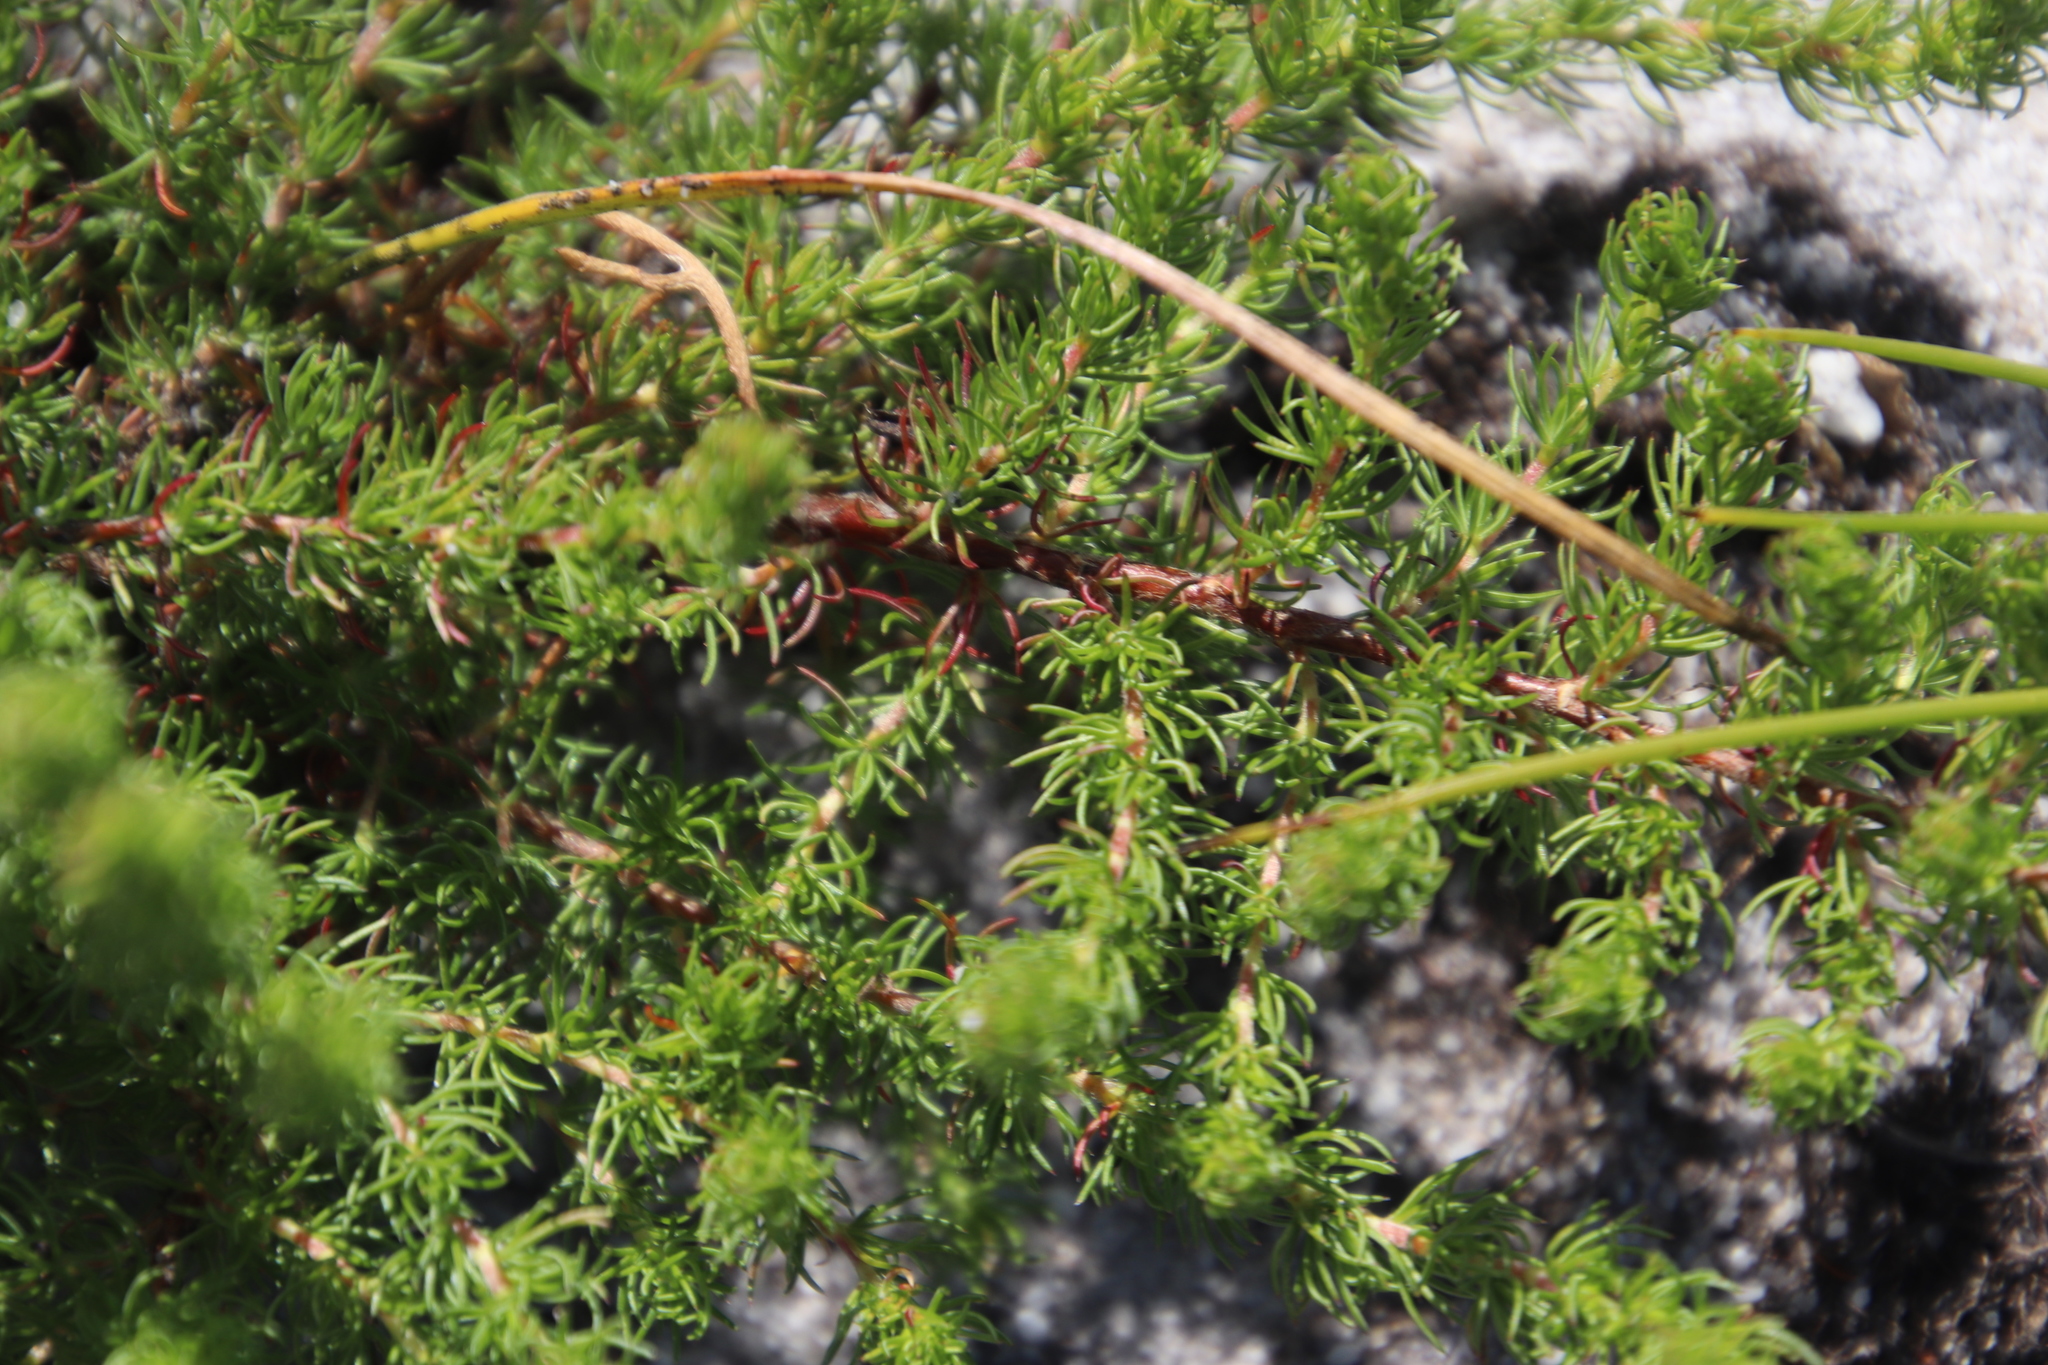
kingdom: Plantae
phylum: Tracheophyta
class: Magnoliopsida
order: Rosales
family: Rosaceae
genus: Cliffortia
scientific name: Cliffortia subsetacea
